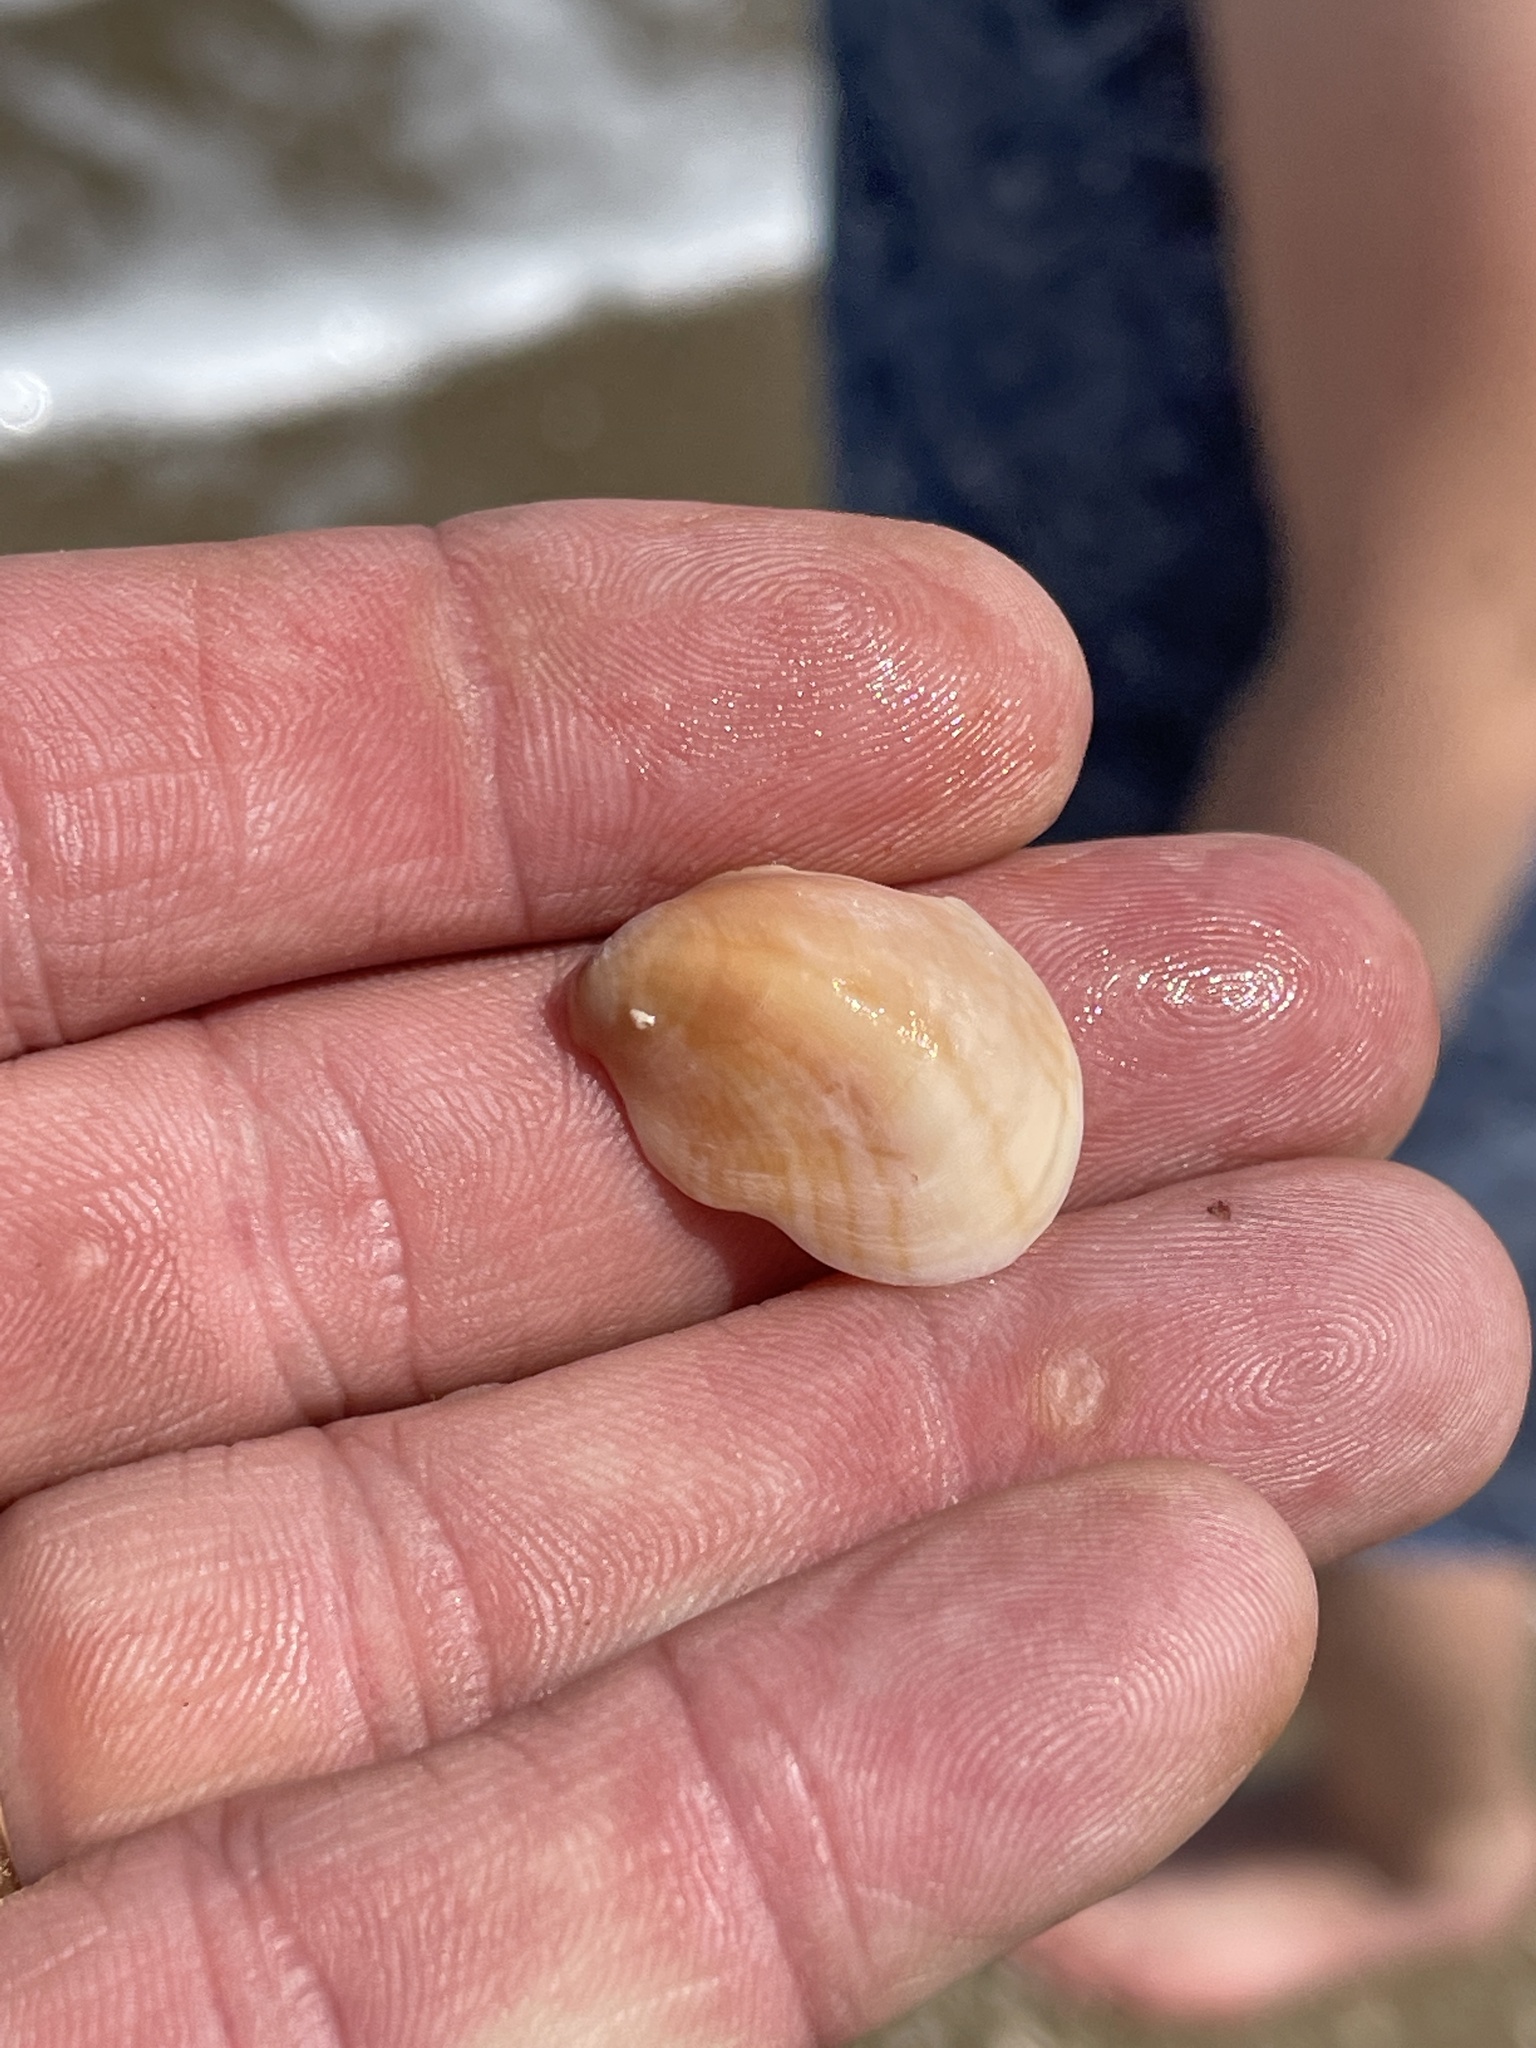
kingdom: Animalia
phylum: Mollusca
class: Gastropoda
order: Littorinimorpha
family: Calyptraeidae
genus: Crepidula
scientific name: Crepidula fornicata
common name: Slipper limpet
